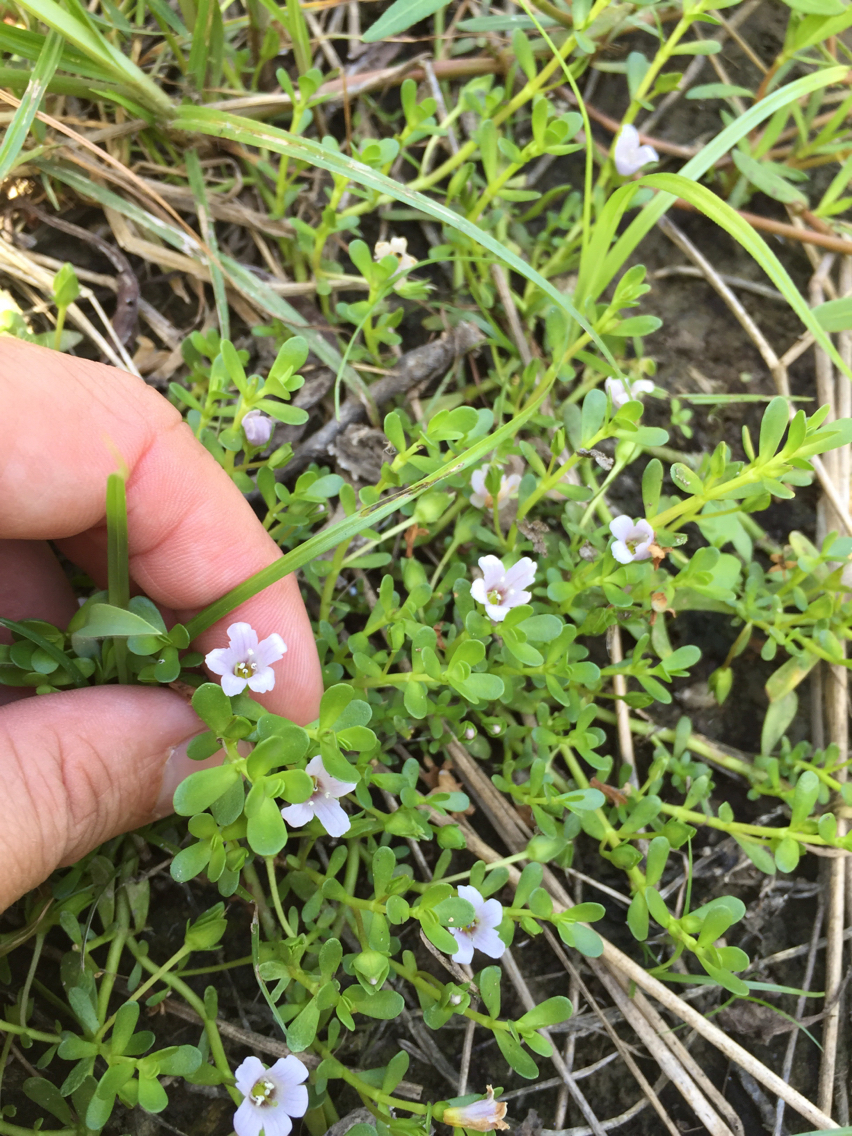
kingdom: Plantae
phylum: Tracheophyta
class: Magnoliopsida
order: Lamiales
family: Plantaginaceae
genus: Bacopa
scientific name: Bacopa monnieri
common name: Indian-pennywort
